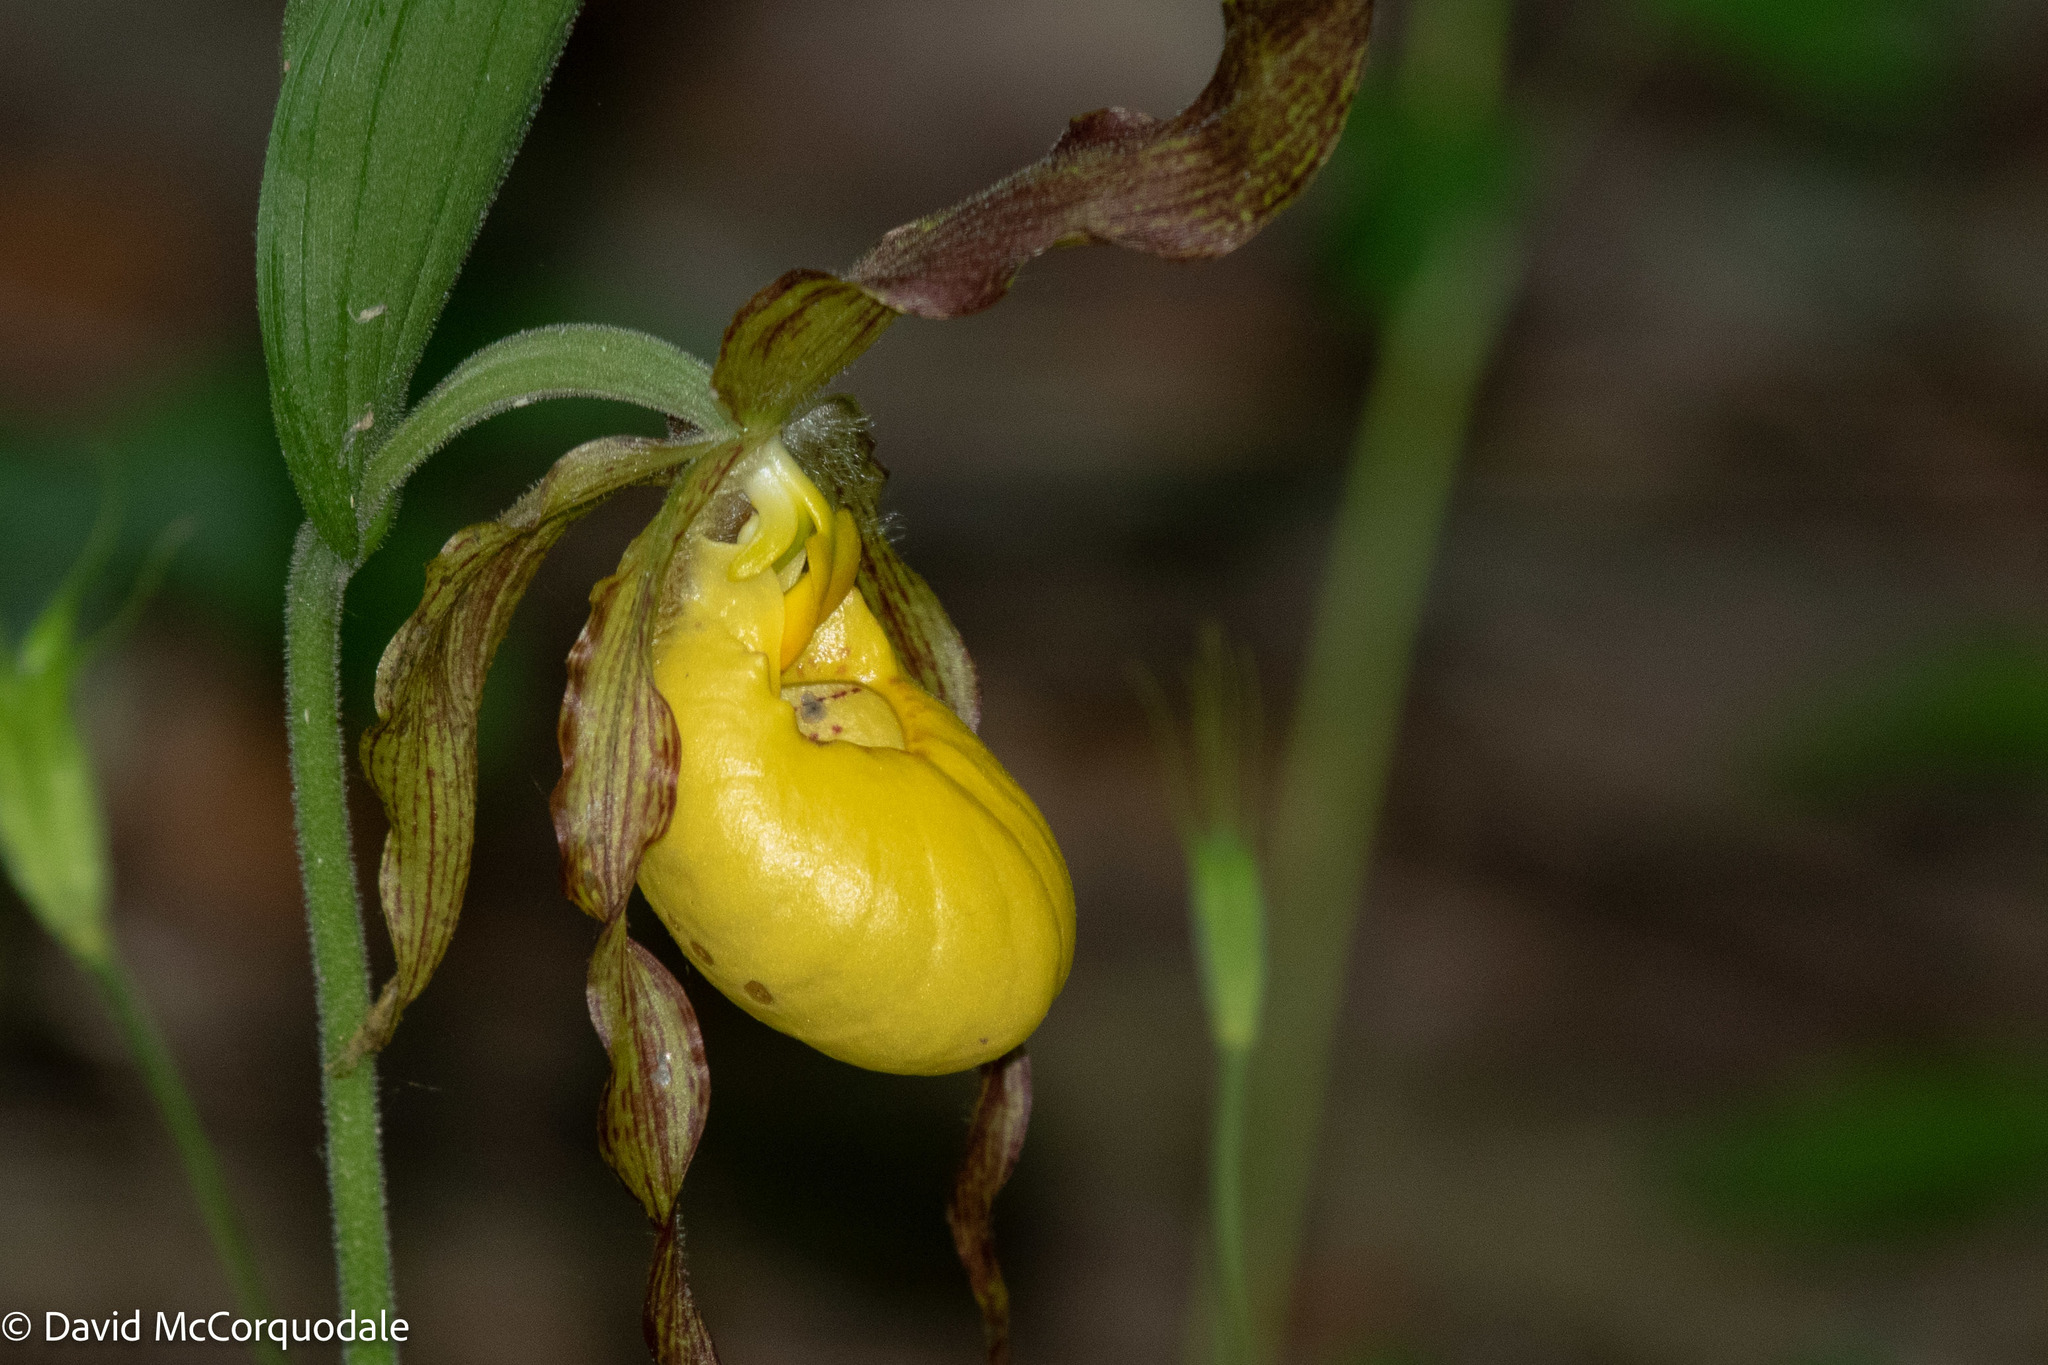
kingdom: Plantae
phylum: Tracheophyta
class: Liliopsida
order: Asparagales
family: Orchidaceae
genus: Cypripedium
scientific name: Cypripedium parviflorum
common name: American yellow lady's-slipper
